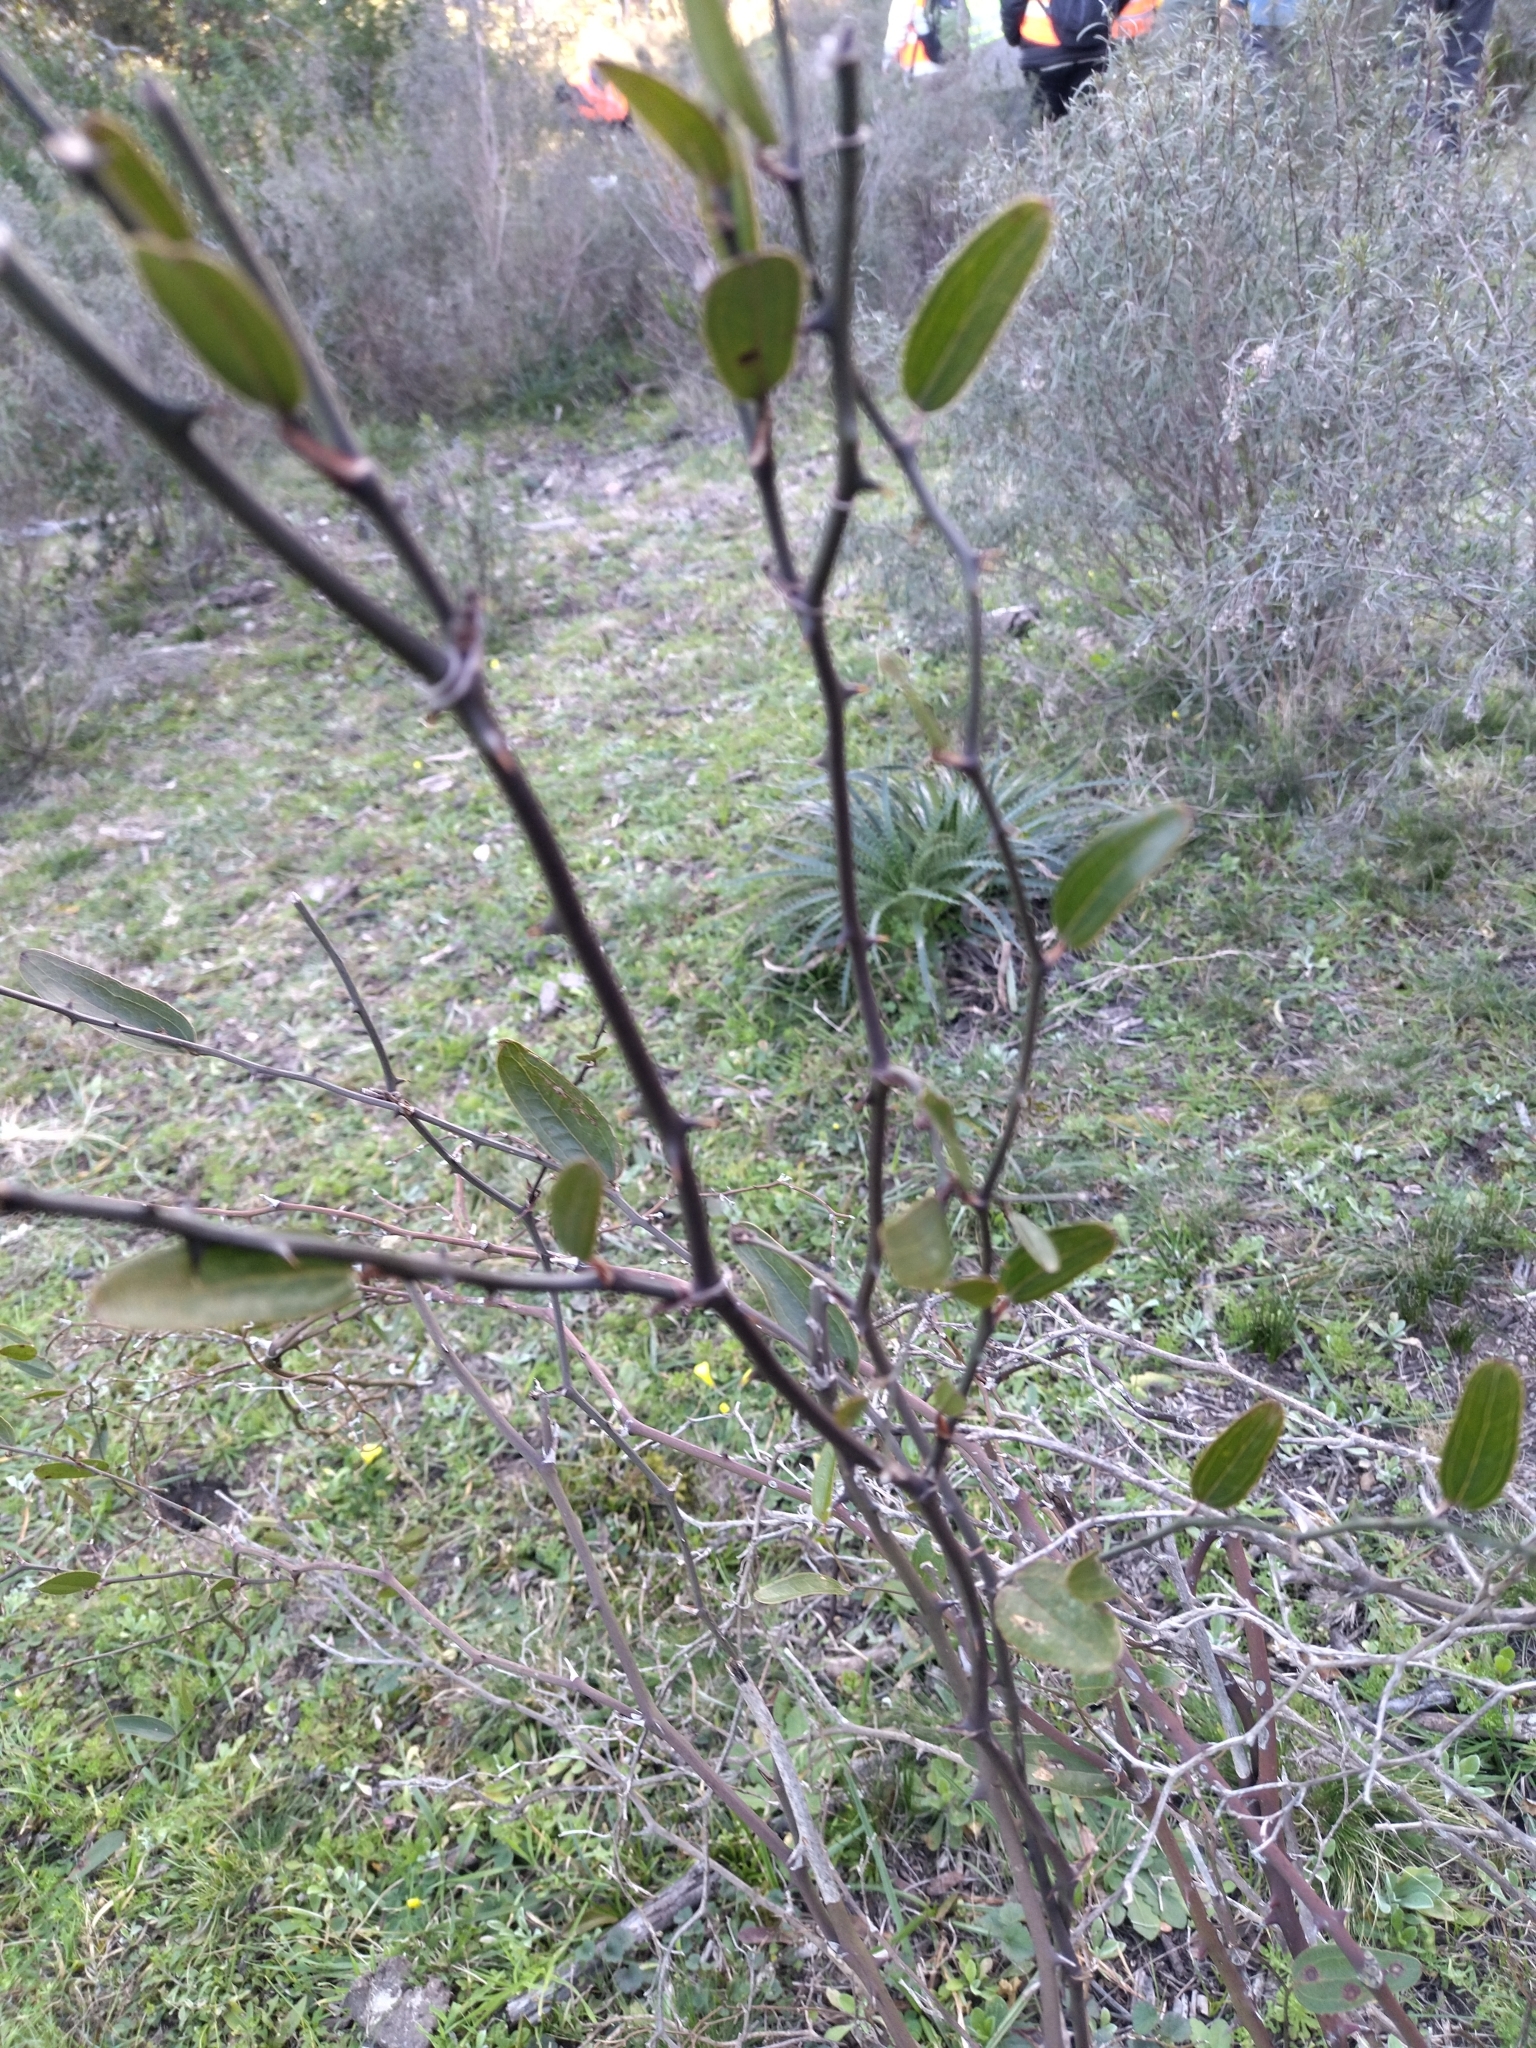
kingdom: Plantae
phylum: Tracheophyta
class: Liliopsida
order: Liliales
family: Smilacaceae
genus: Smilax
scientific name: Smilax campestris
